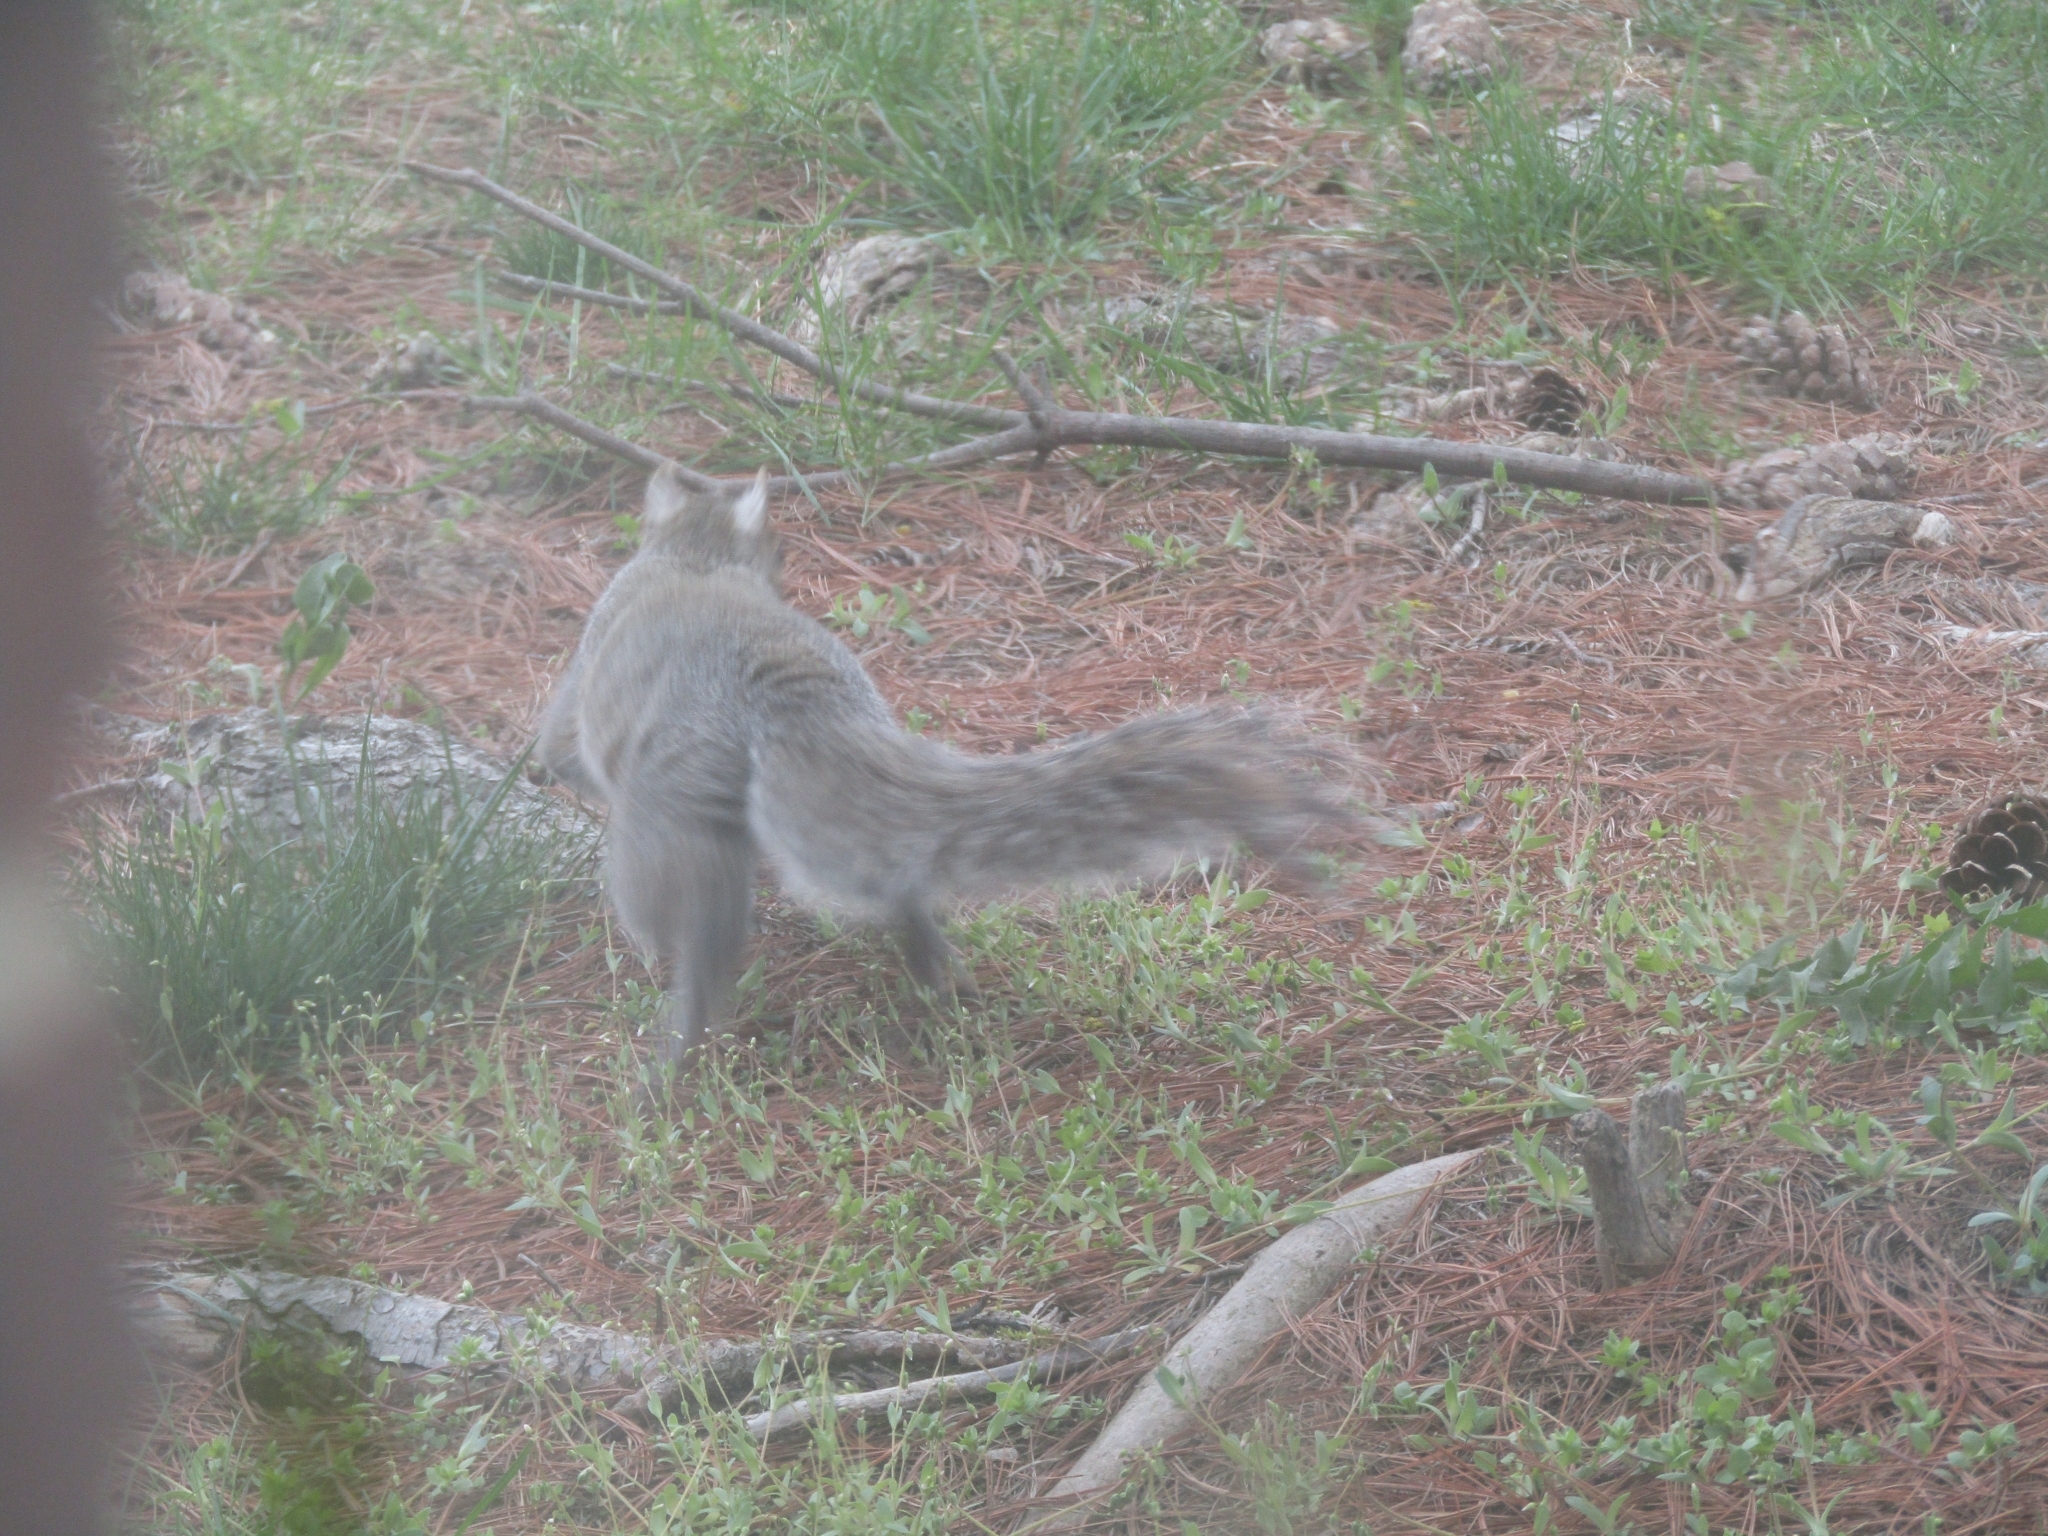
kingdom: Animalia
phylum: Chordata
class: Mammalia
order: Rodentia
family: Sciuridae
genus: Sciurus
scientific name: Sciurus carolinensis
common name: Eastern gray squirrel
